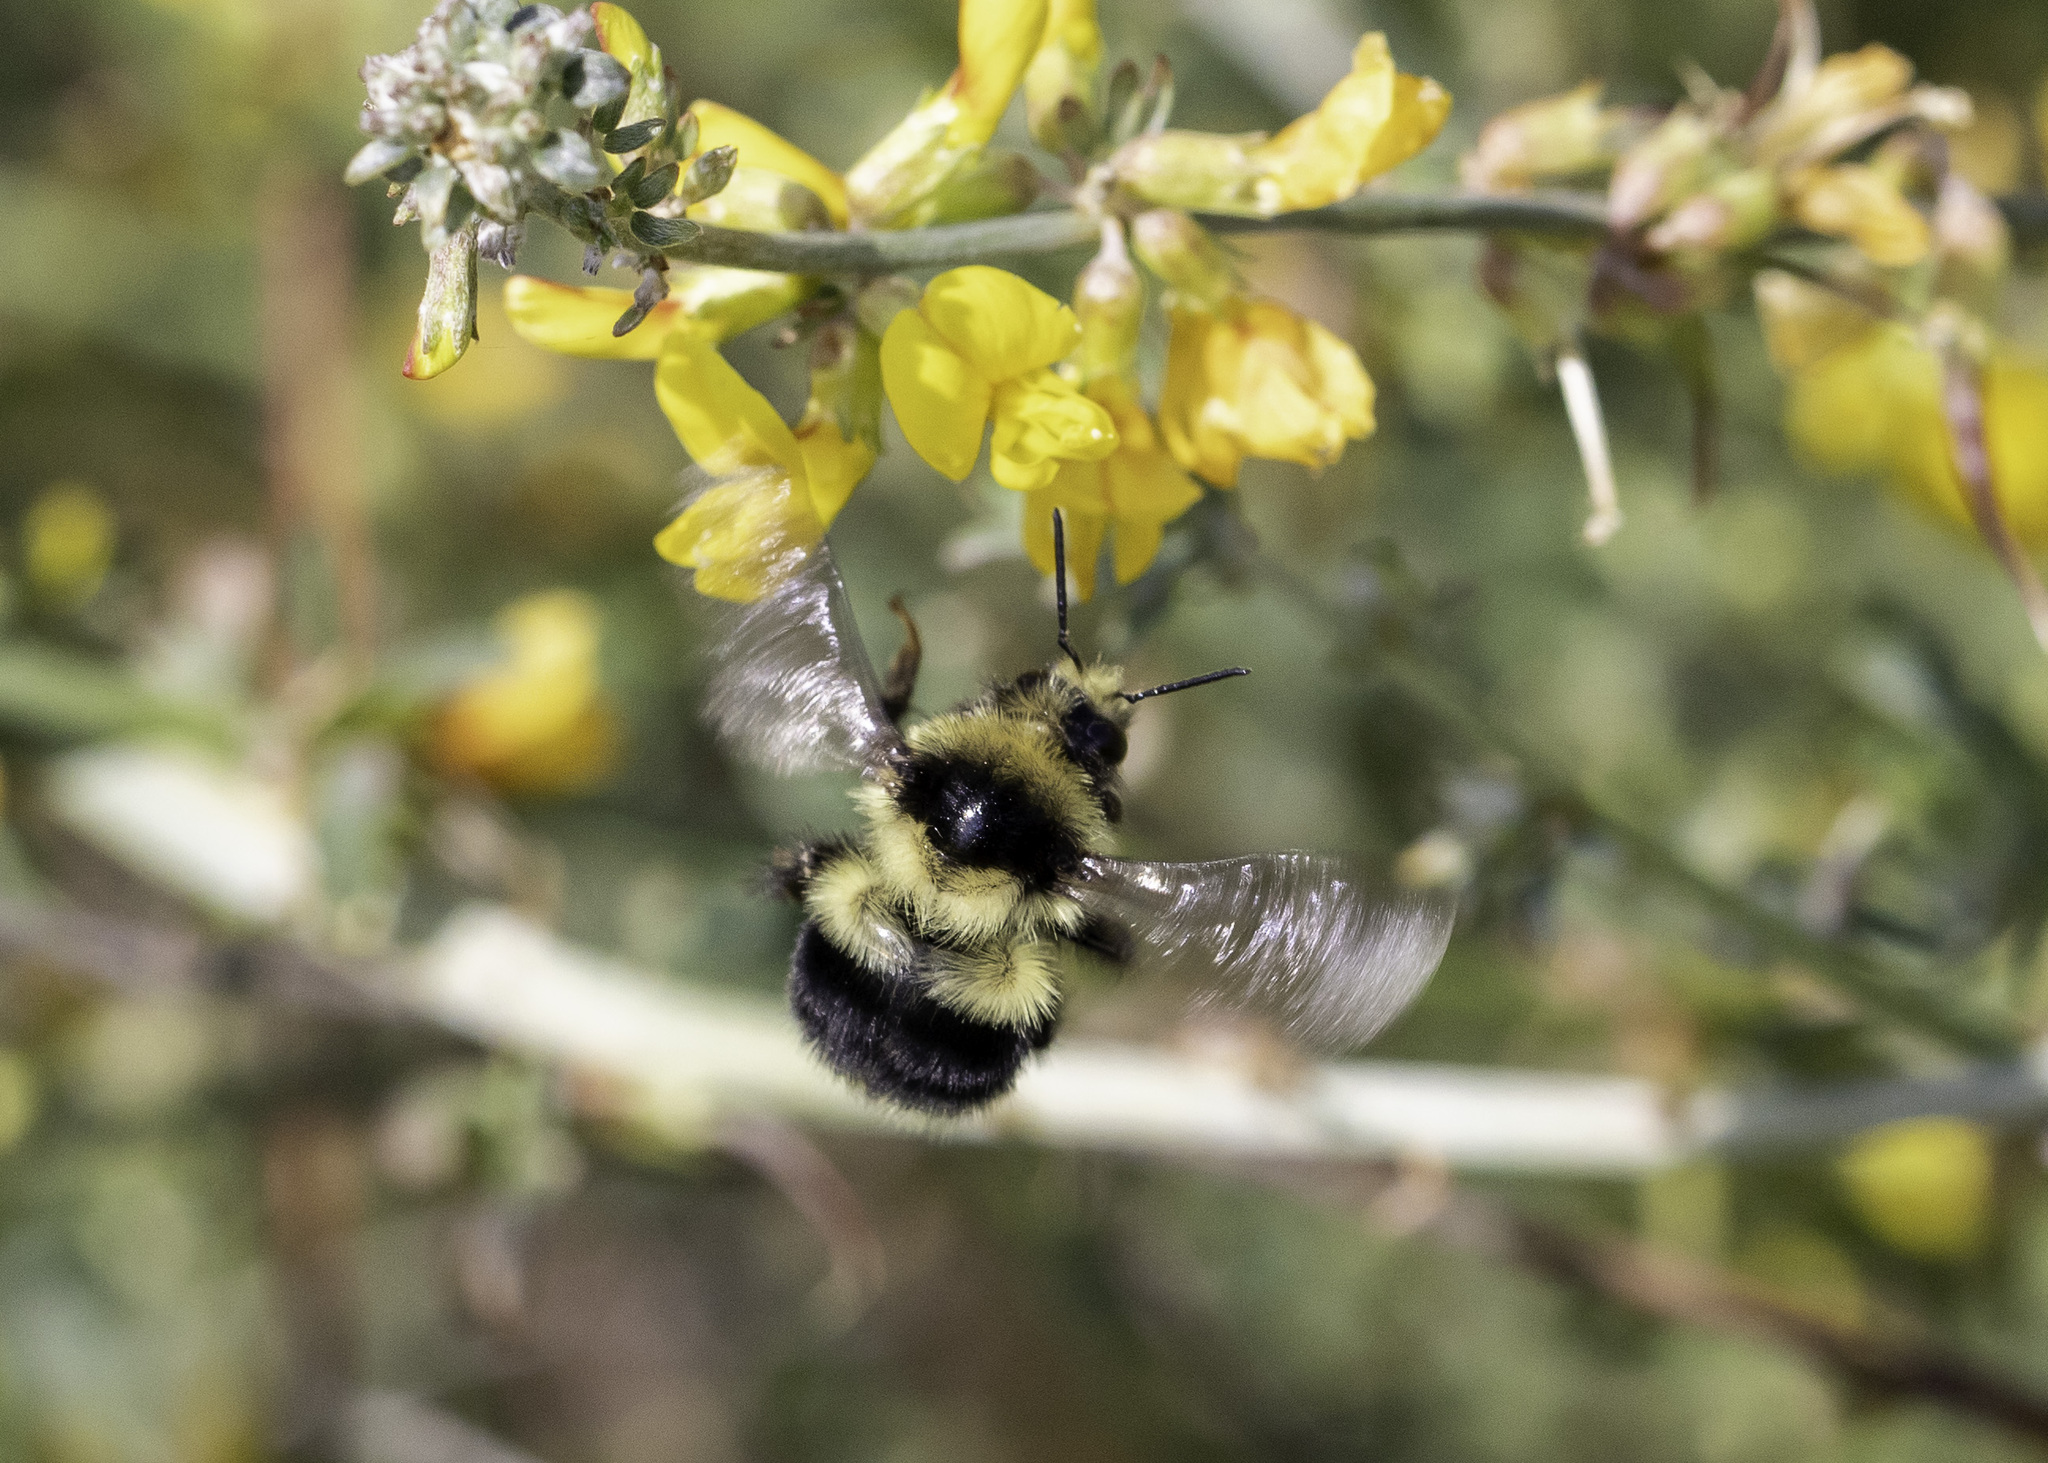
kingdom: Animalia
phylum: Arthropoda
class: Insecta
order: Hymenoptera
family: Apidae
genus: Bombus
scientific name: Bombus melanopygus
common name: Black tail bumble bee
